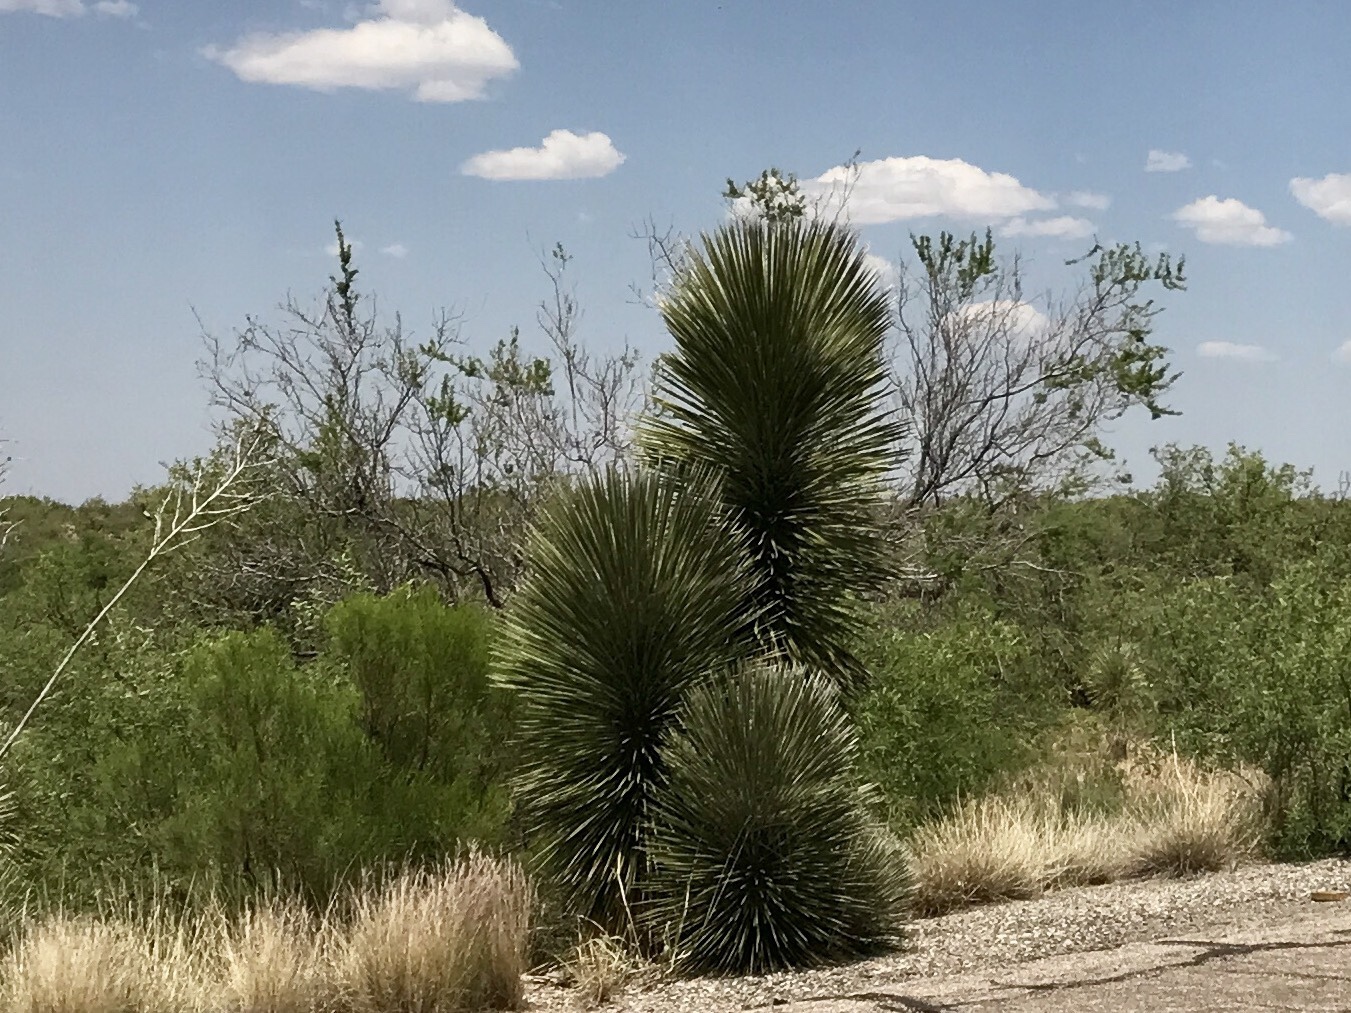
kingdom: Plantae
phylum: Tracheophyta
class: Liliopsida
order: Asparagales
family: Asparagaceae
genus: Yucca
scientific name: Yucca elata
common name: Palmella
